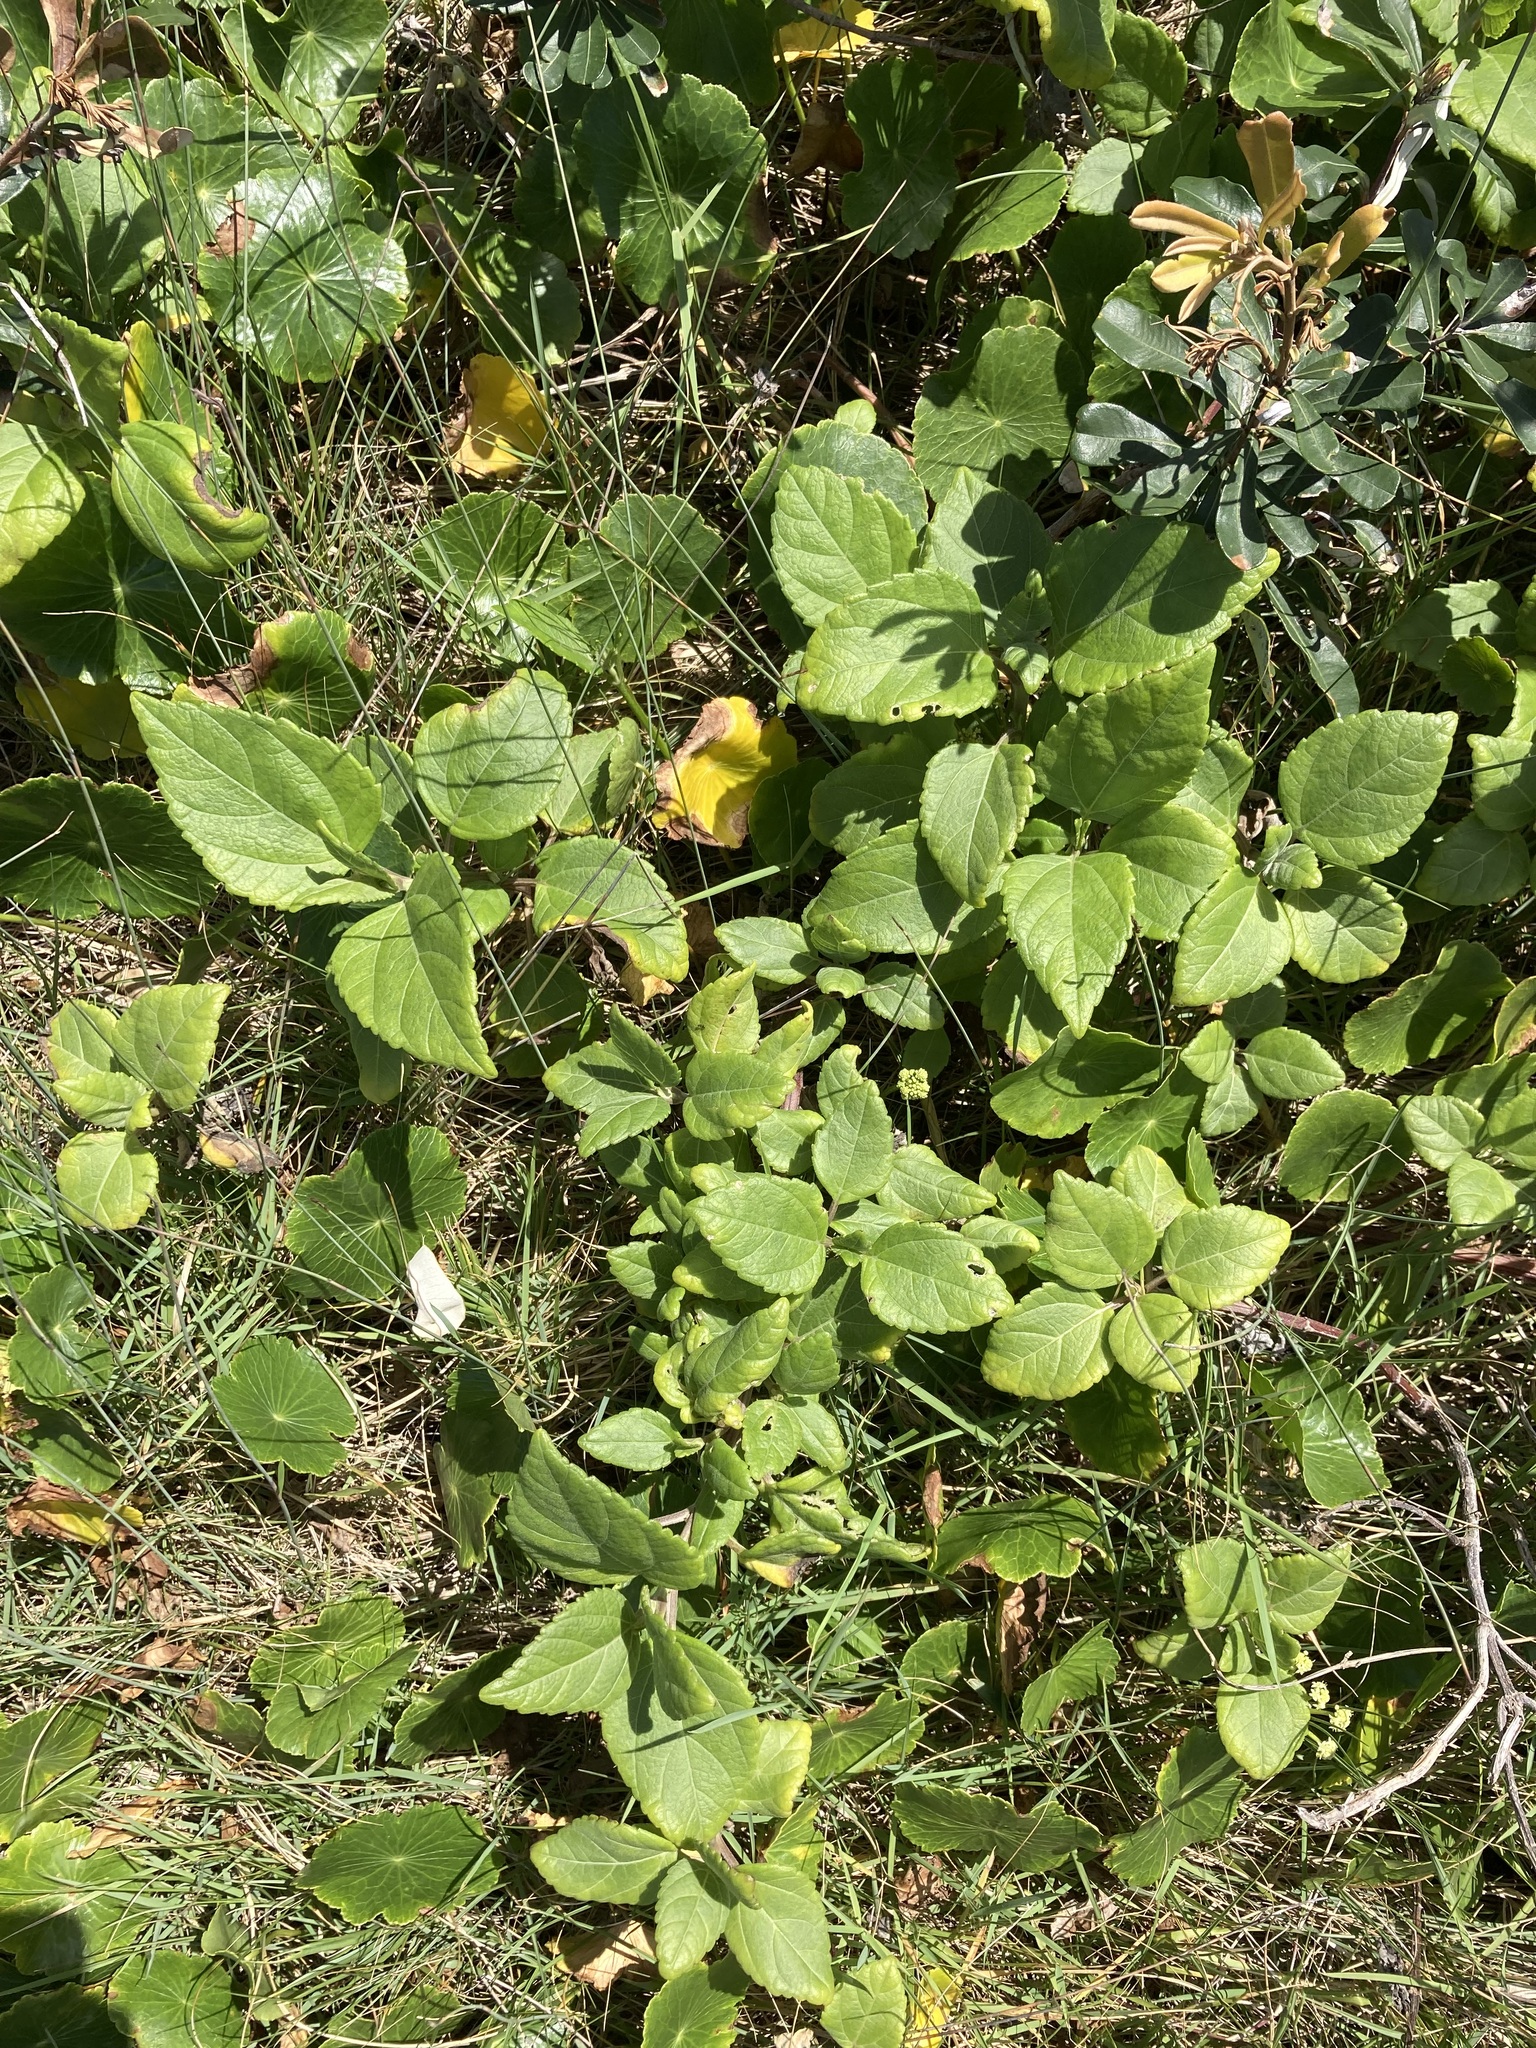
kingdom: Plantae
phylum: Tracheophyta
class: Magnoliopsida
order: Asterales
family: Asteraceae
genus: Wollastonia
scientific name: Wollastonia uniflora
